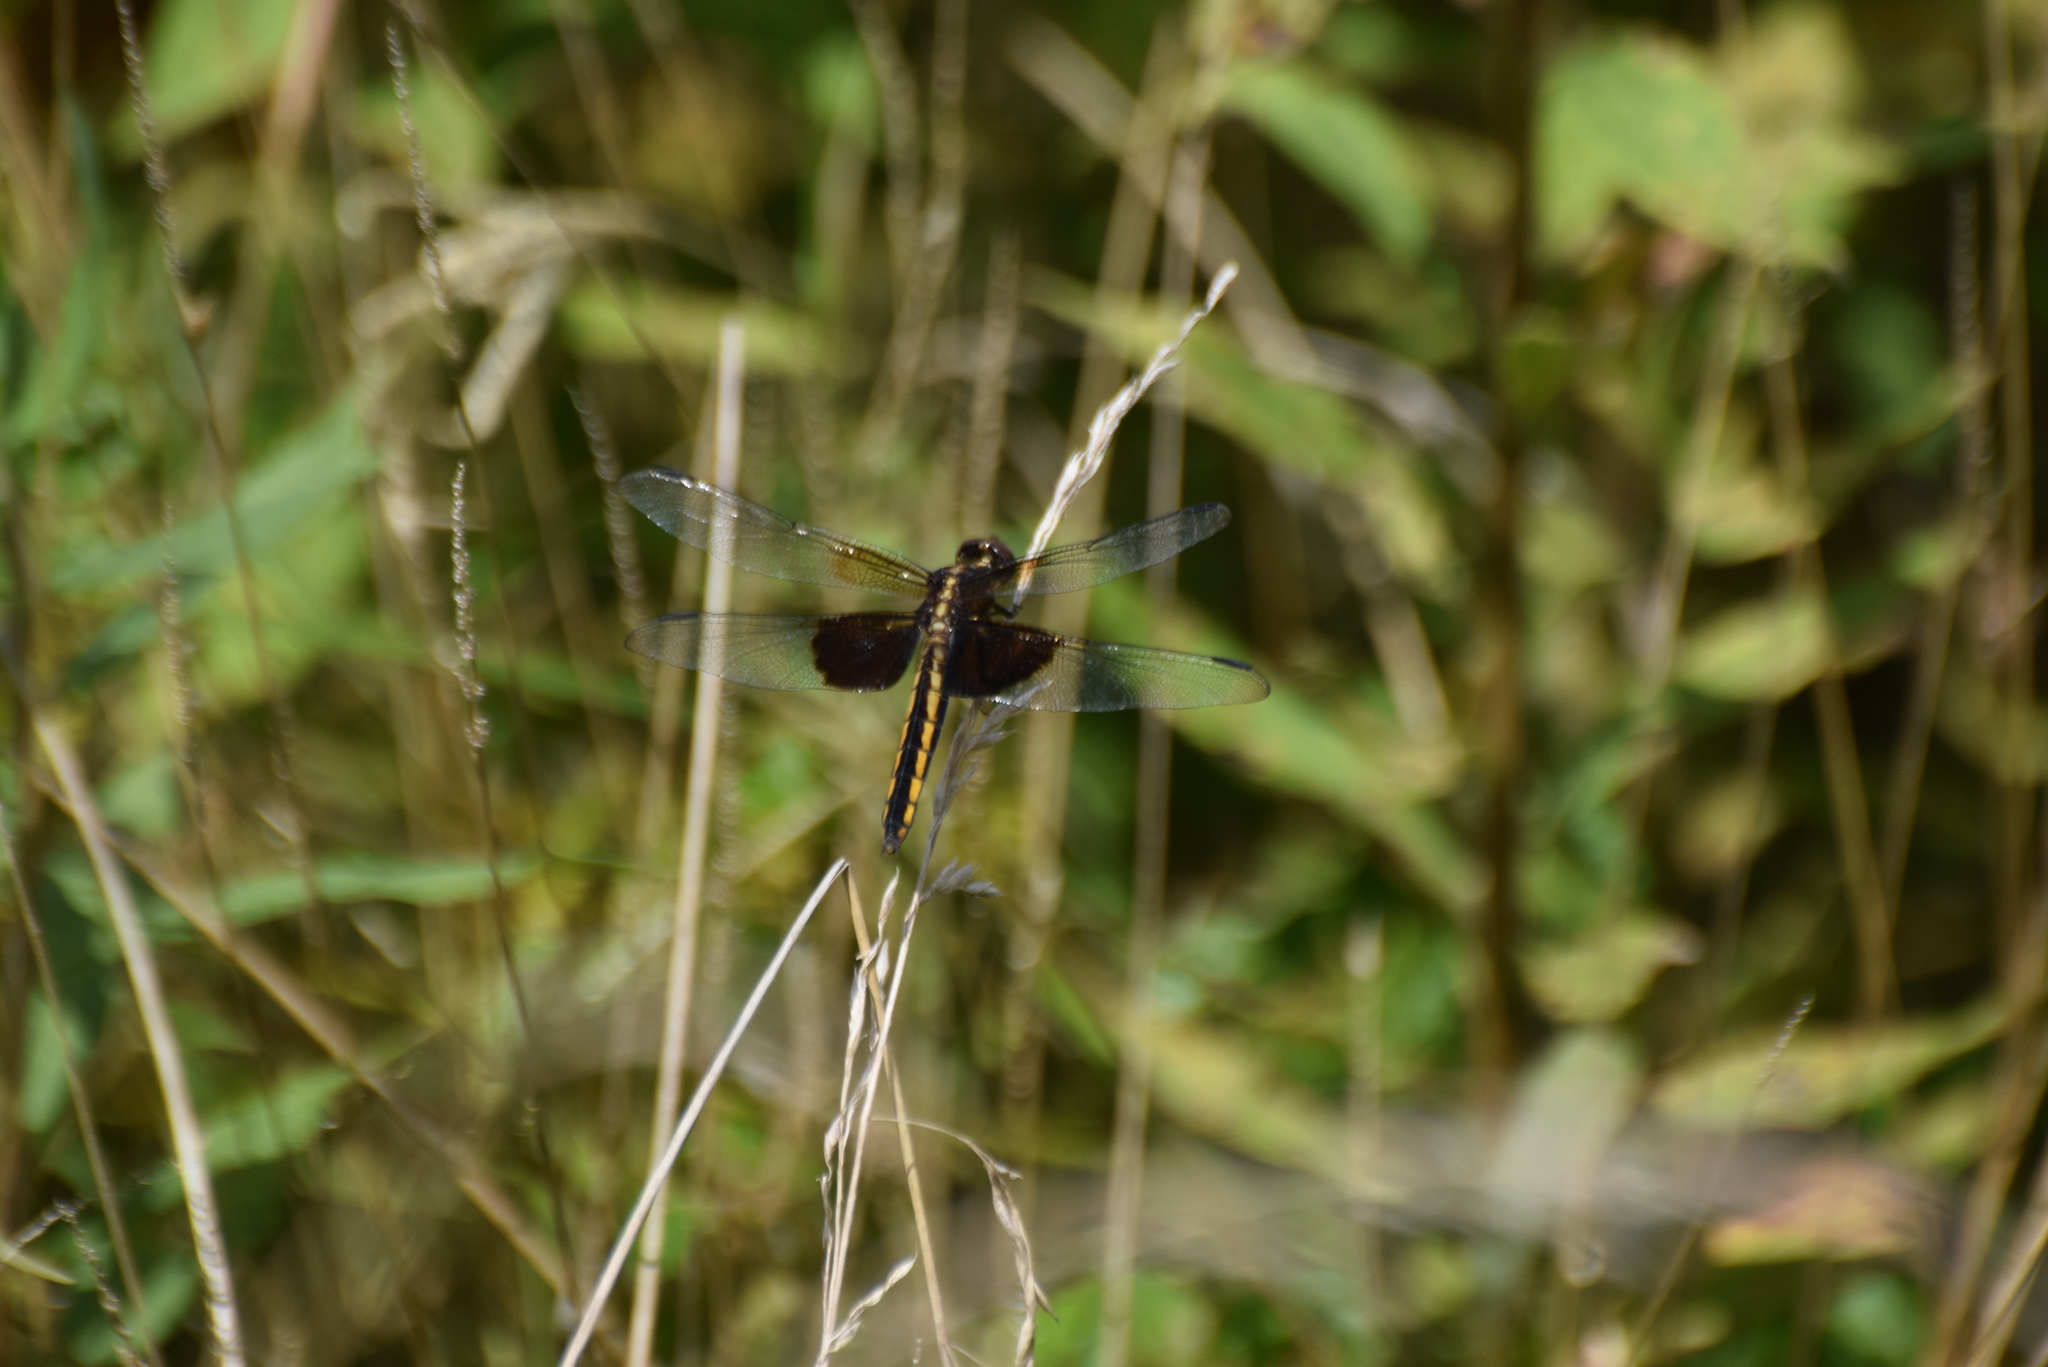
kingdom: Animalia
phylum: Arthropoda
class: Insecta
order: Odonata
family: Libellulidae
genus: Libellula
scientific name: Libellula luctuosa
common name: Widow skimmer
